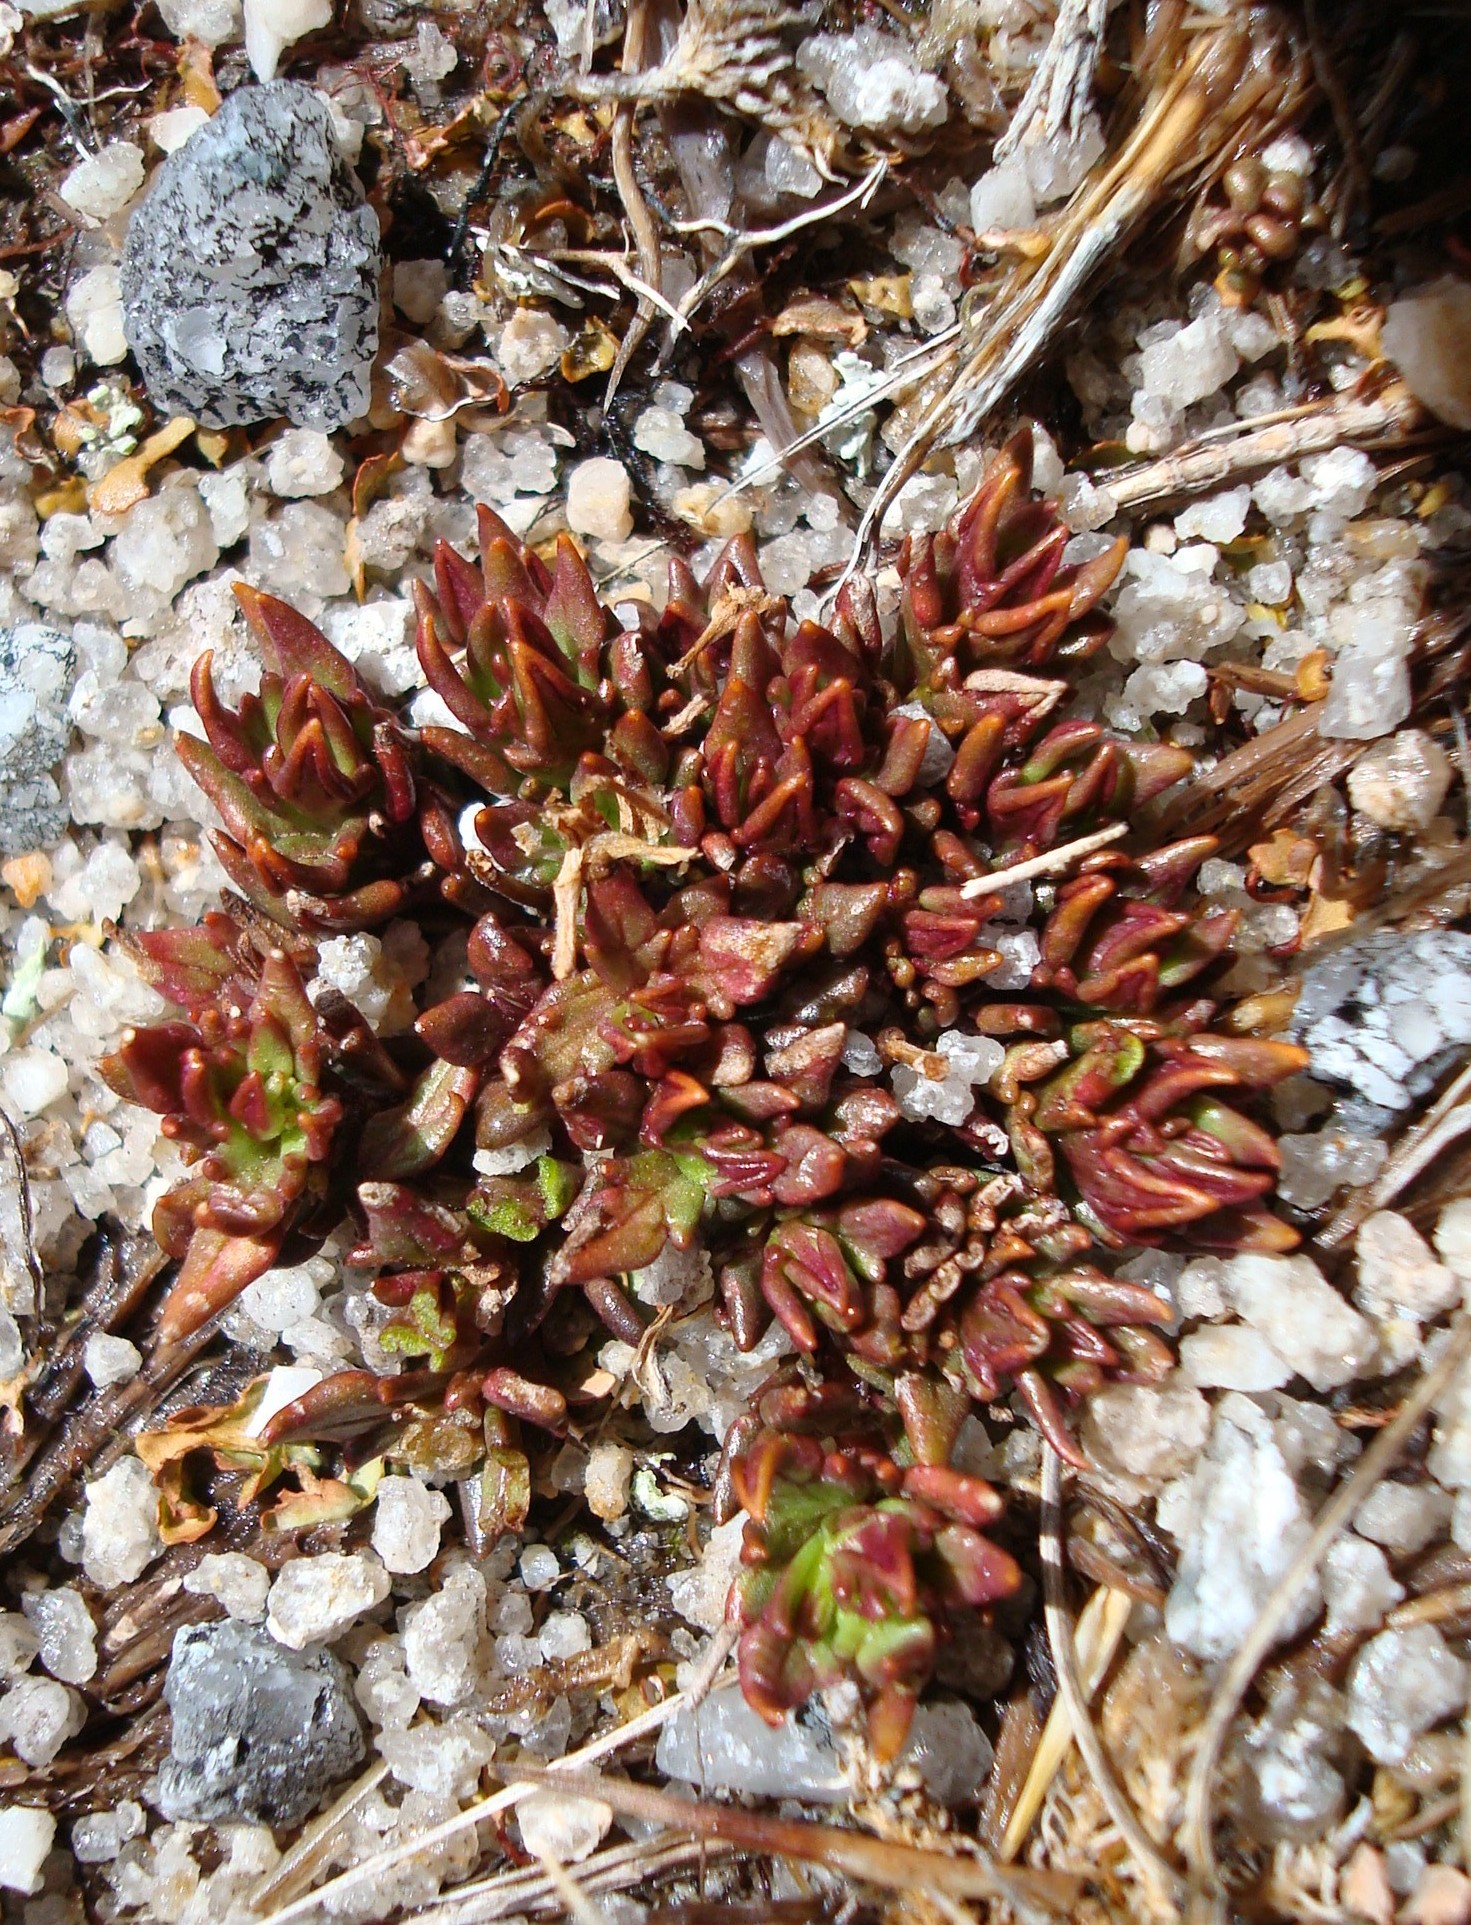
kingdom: Plantae
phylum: Tracheophyta
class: Magnoliopsida
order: Lamiales
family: Orobanchaceae
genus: Euphrasia
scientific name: Euphrasia townsonii
